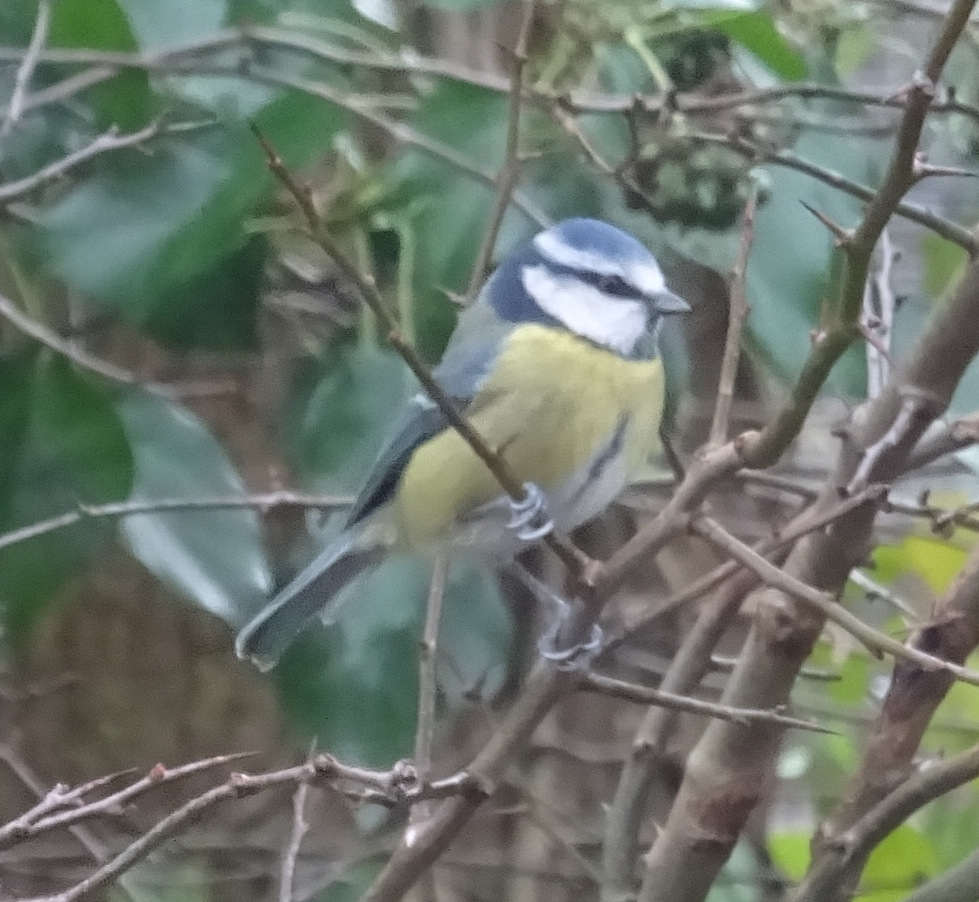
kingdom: Animalia
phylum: Chordata
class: Aves
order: Passeriformes
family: Paridae
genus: Cyanistes
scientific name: Cyanistes caeruleus
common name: Eurasian blue tit
